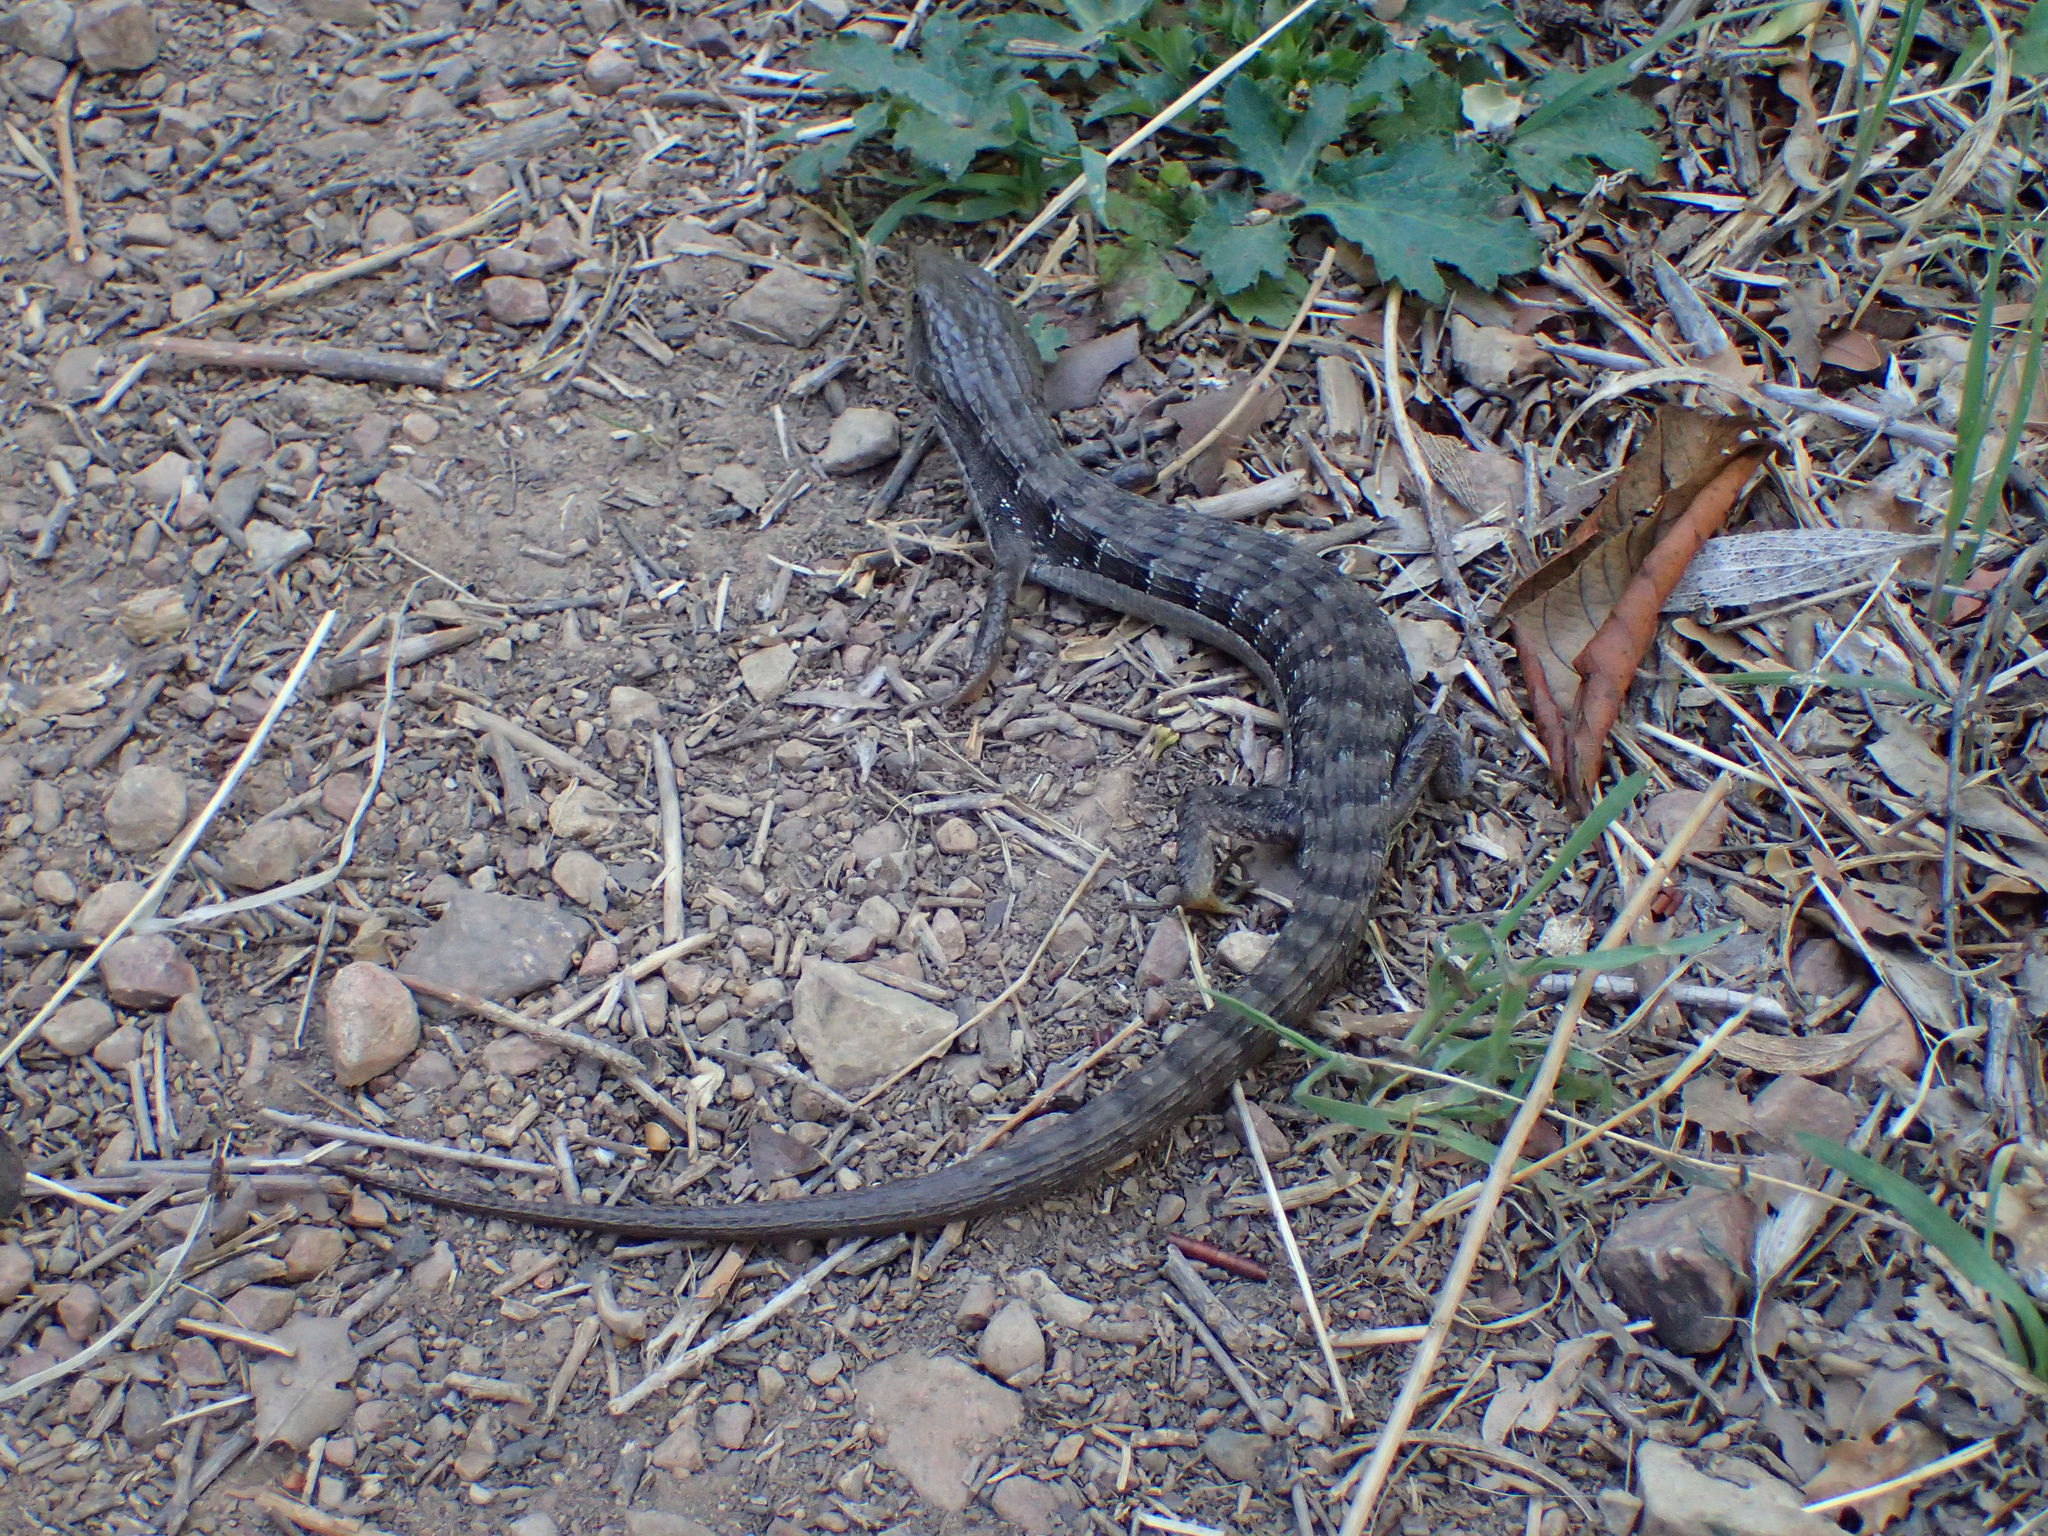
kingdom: Animalia
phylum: Chordata
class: Squamata
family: Anguidae
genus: Elgaria
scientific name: Elgaria multicarinata
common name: Southern alligator lizard
